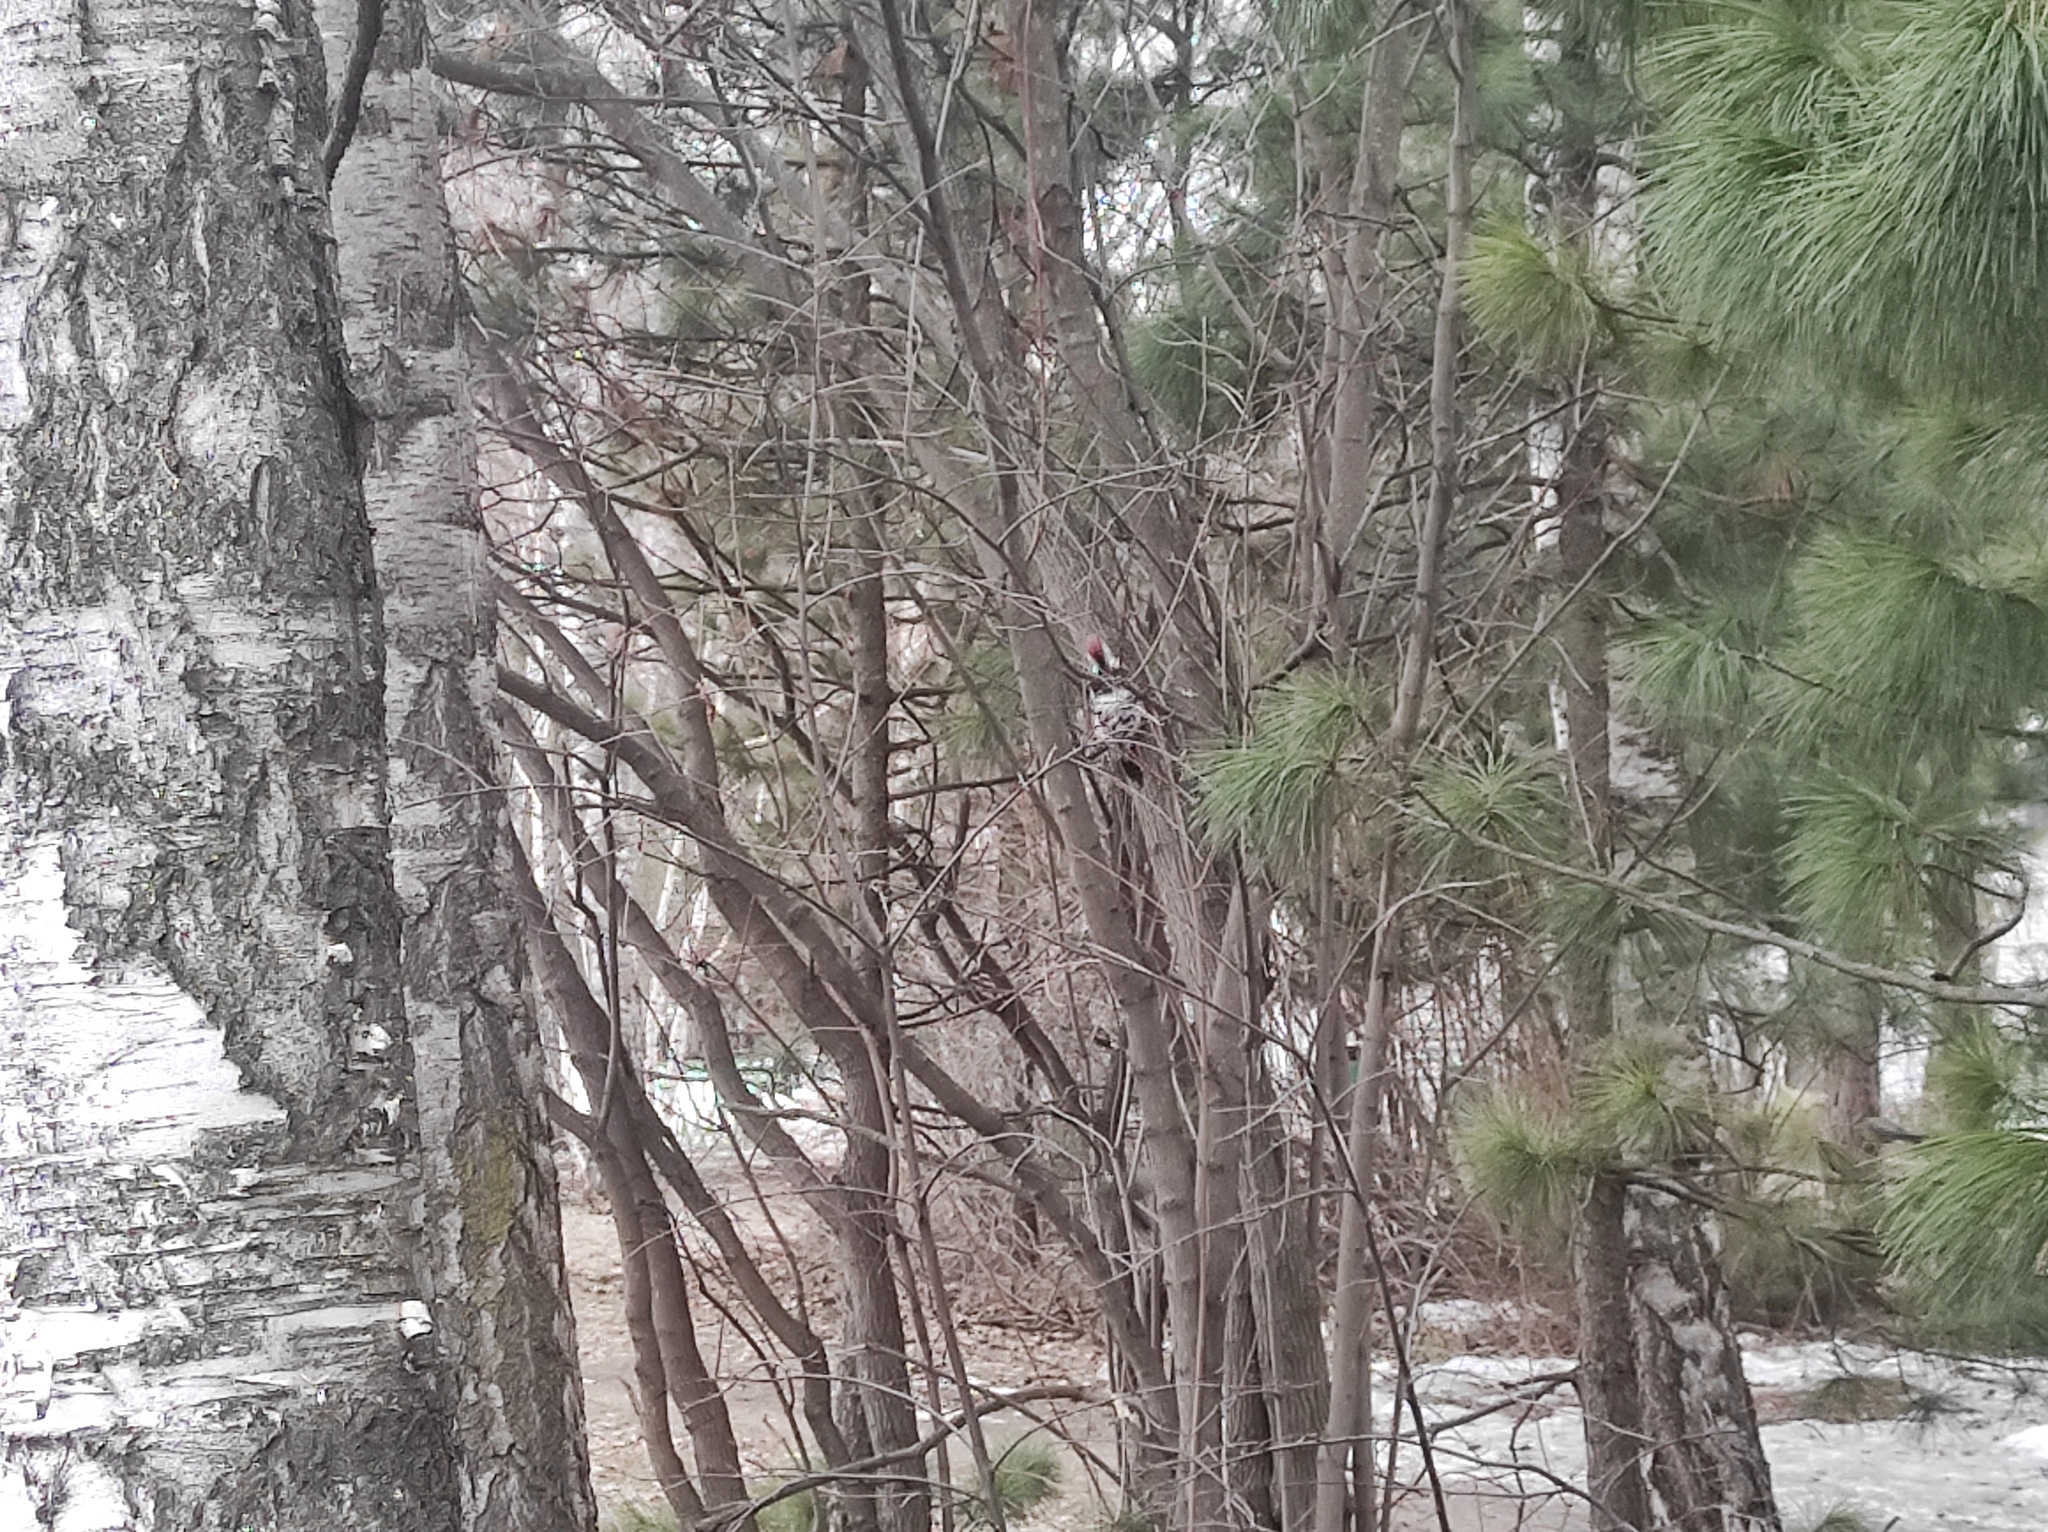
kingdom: Animalia
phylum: Chordata
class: Aves
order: Piciformes
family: Picidae
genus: Dendrocopos
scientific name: Dendrocopos leucotos
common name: White-backed woodpecker
